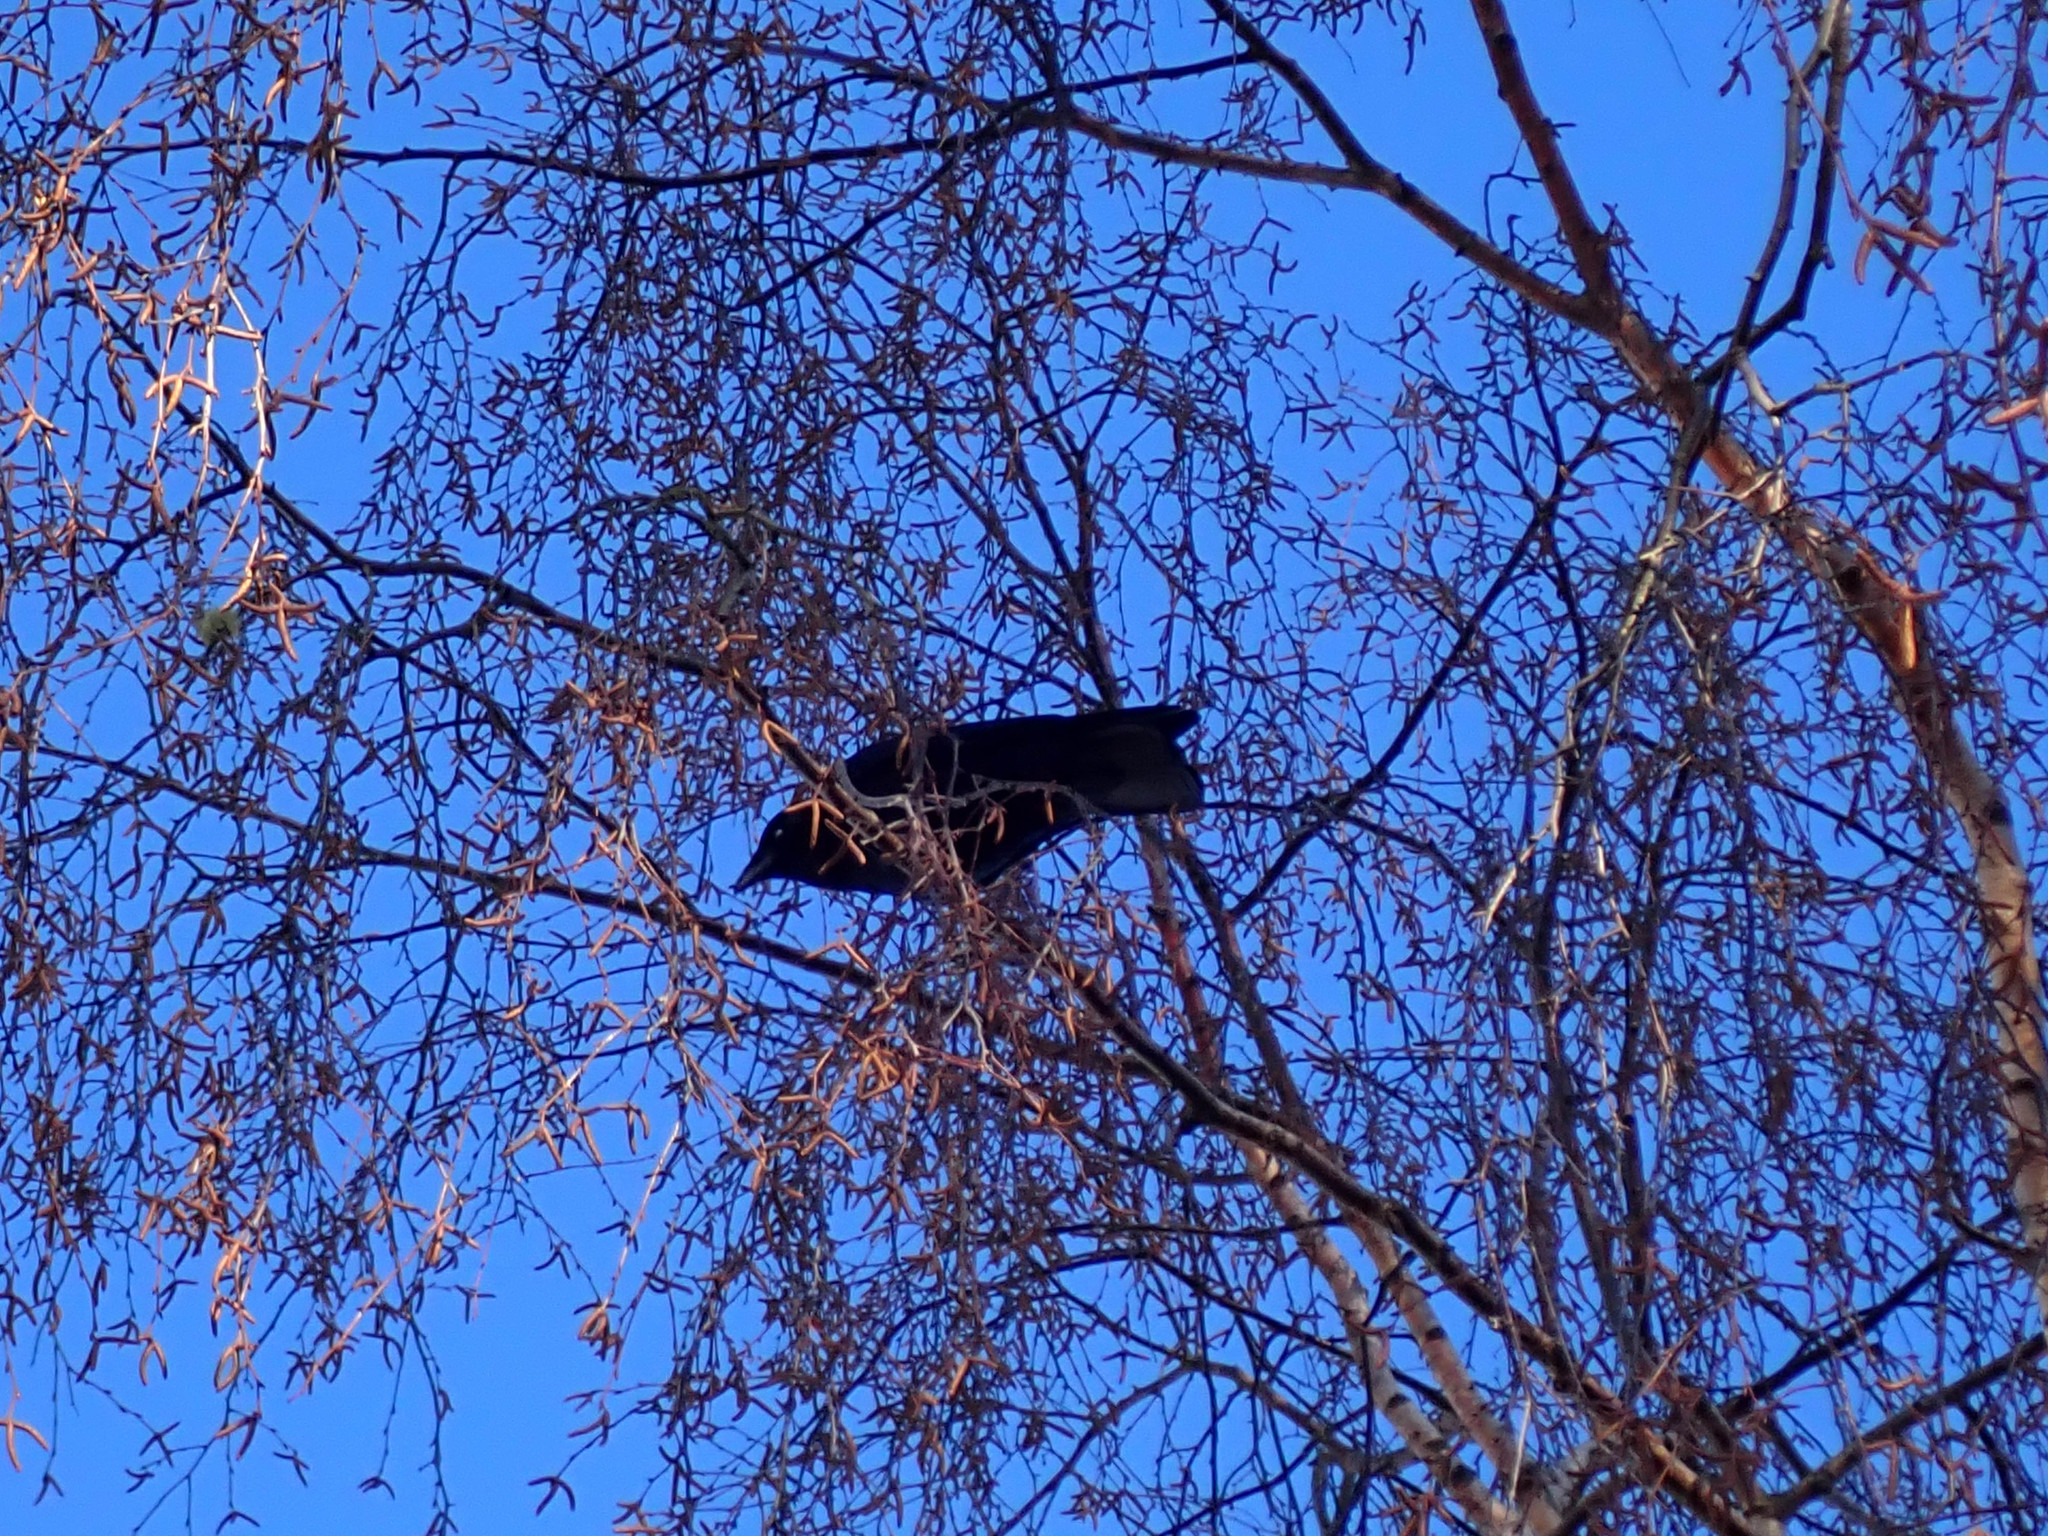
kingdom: Animalia
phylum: Chordata
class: Aves
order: Passeriformes
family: Corvidae
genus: Corvus
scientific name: Corvus brachyrhynchos
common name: American crow
